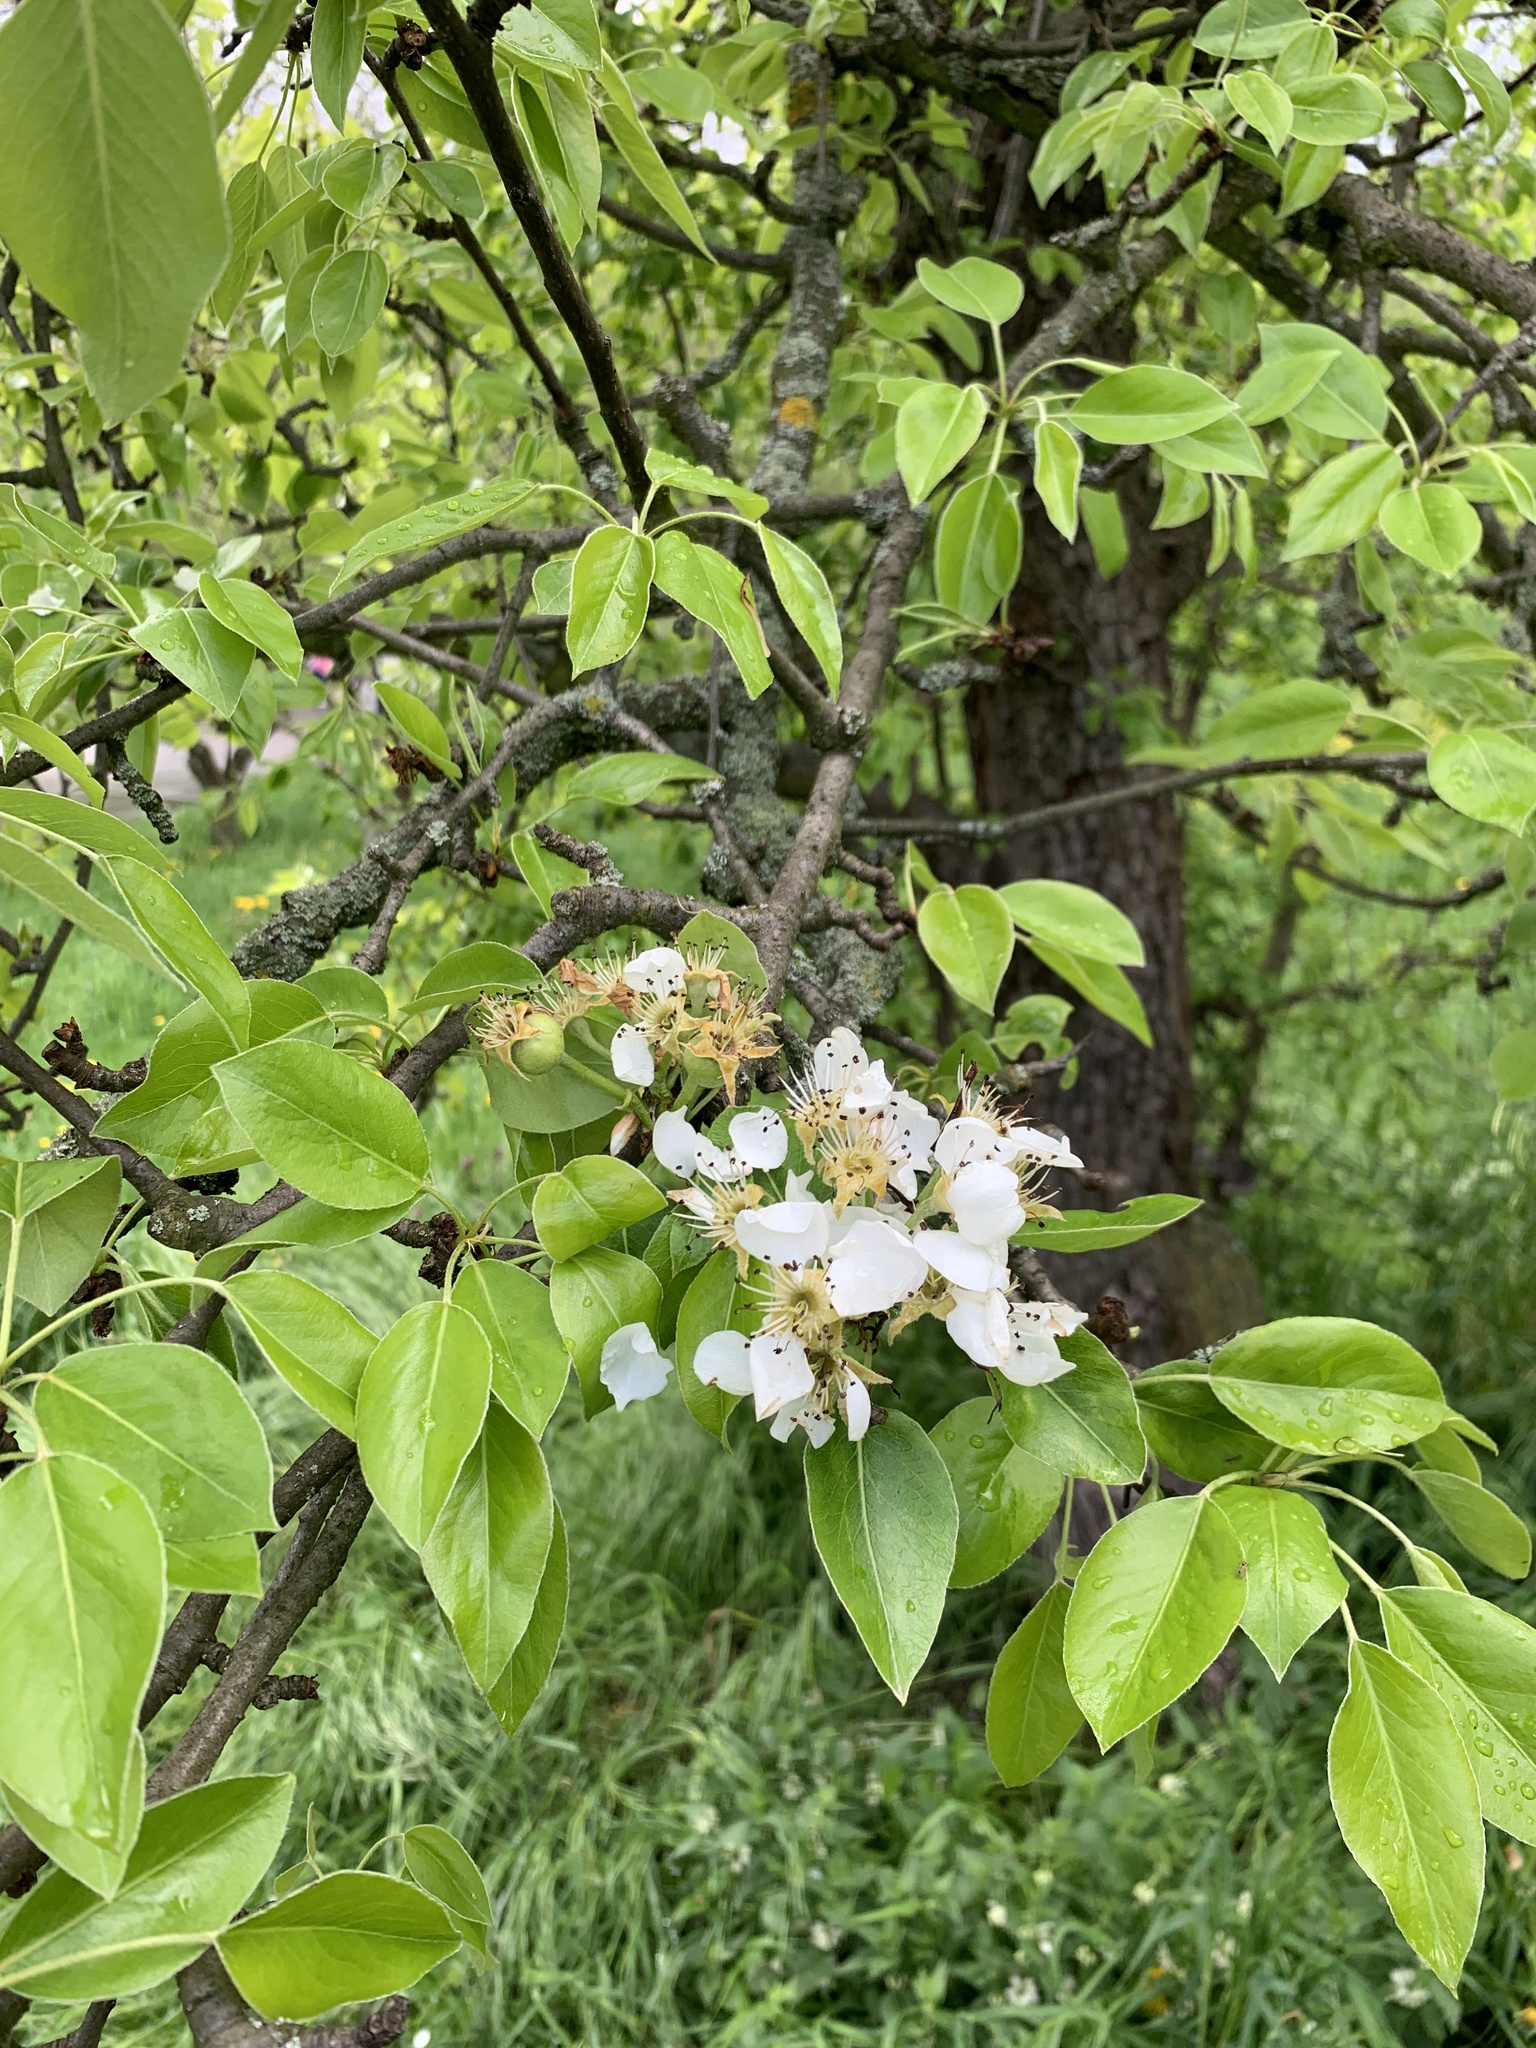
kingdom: Plantae
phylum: Tracheophyta
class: Magnoliopsida
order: Rosales
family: Rosaceae
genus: Pyrus
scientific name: Pyrus communis
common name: Pear
